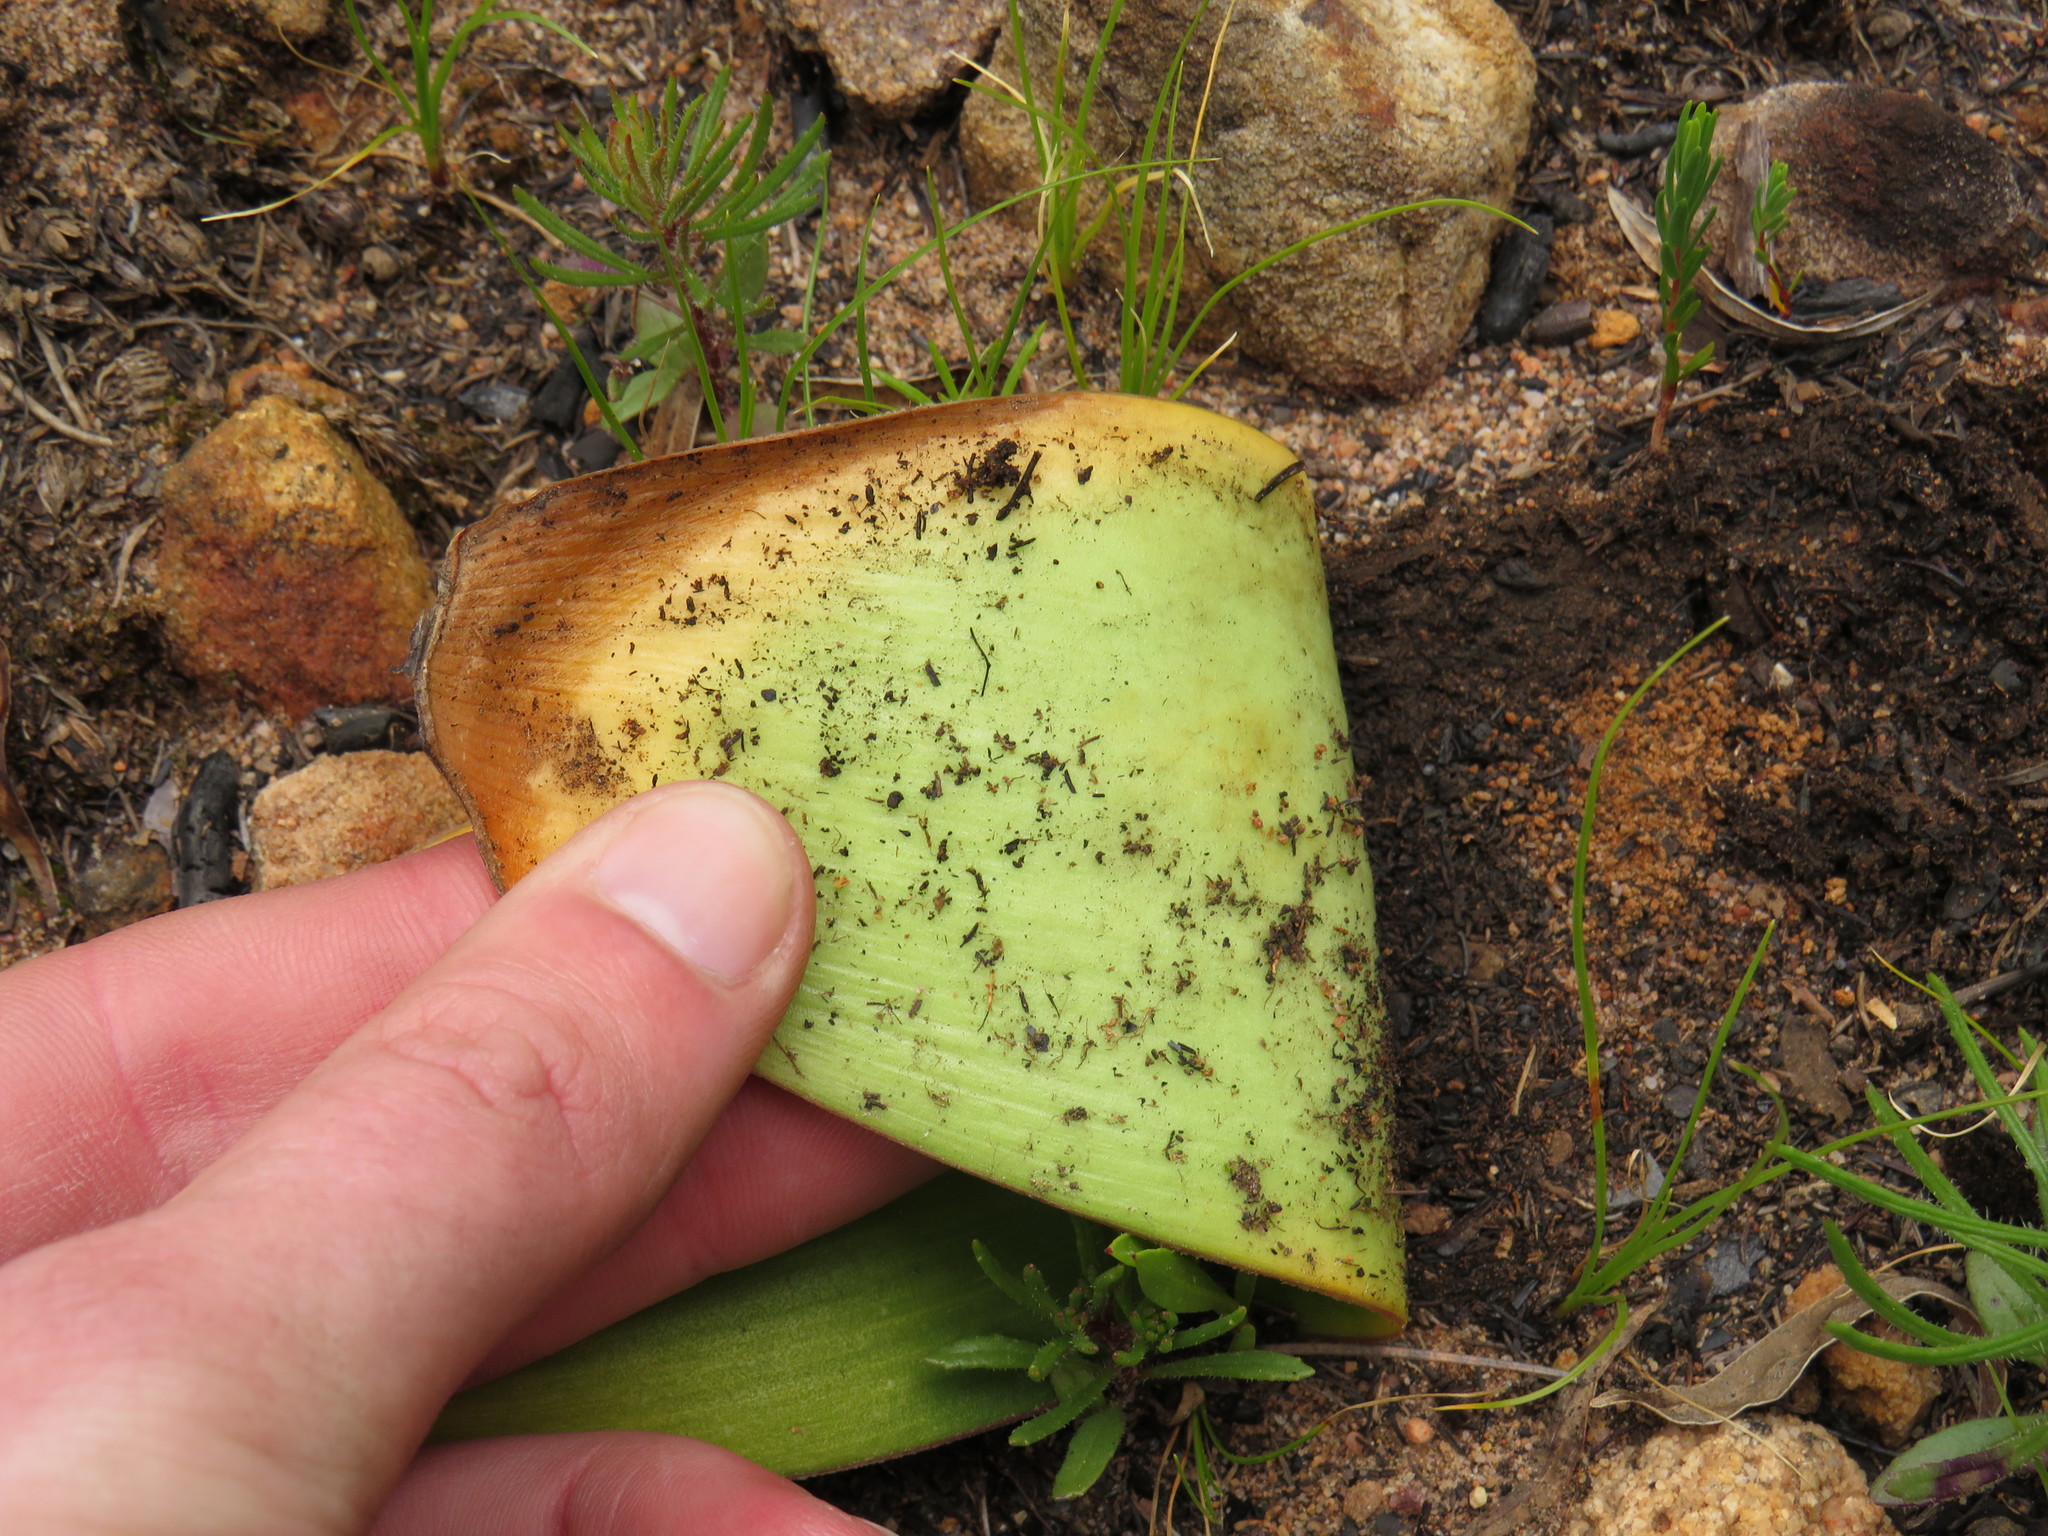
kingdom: Plantae
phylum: Tracheophyta
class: Liliopsida
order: Asparagales
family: Amaryllidaceae
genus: Haemanthus
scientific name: Haemanthus sanguineus
